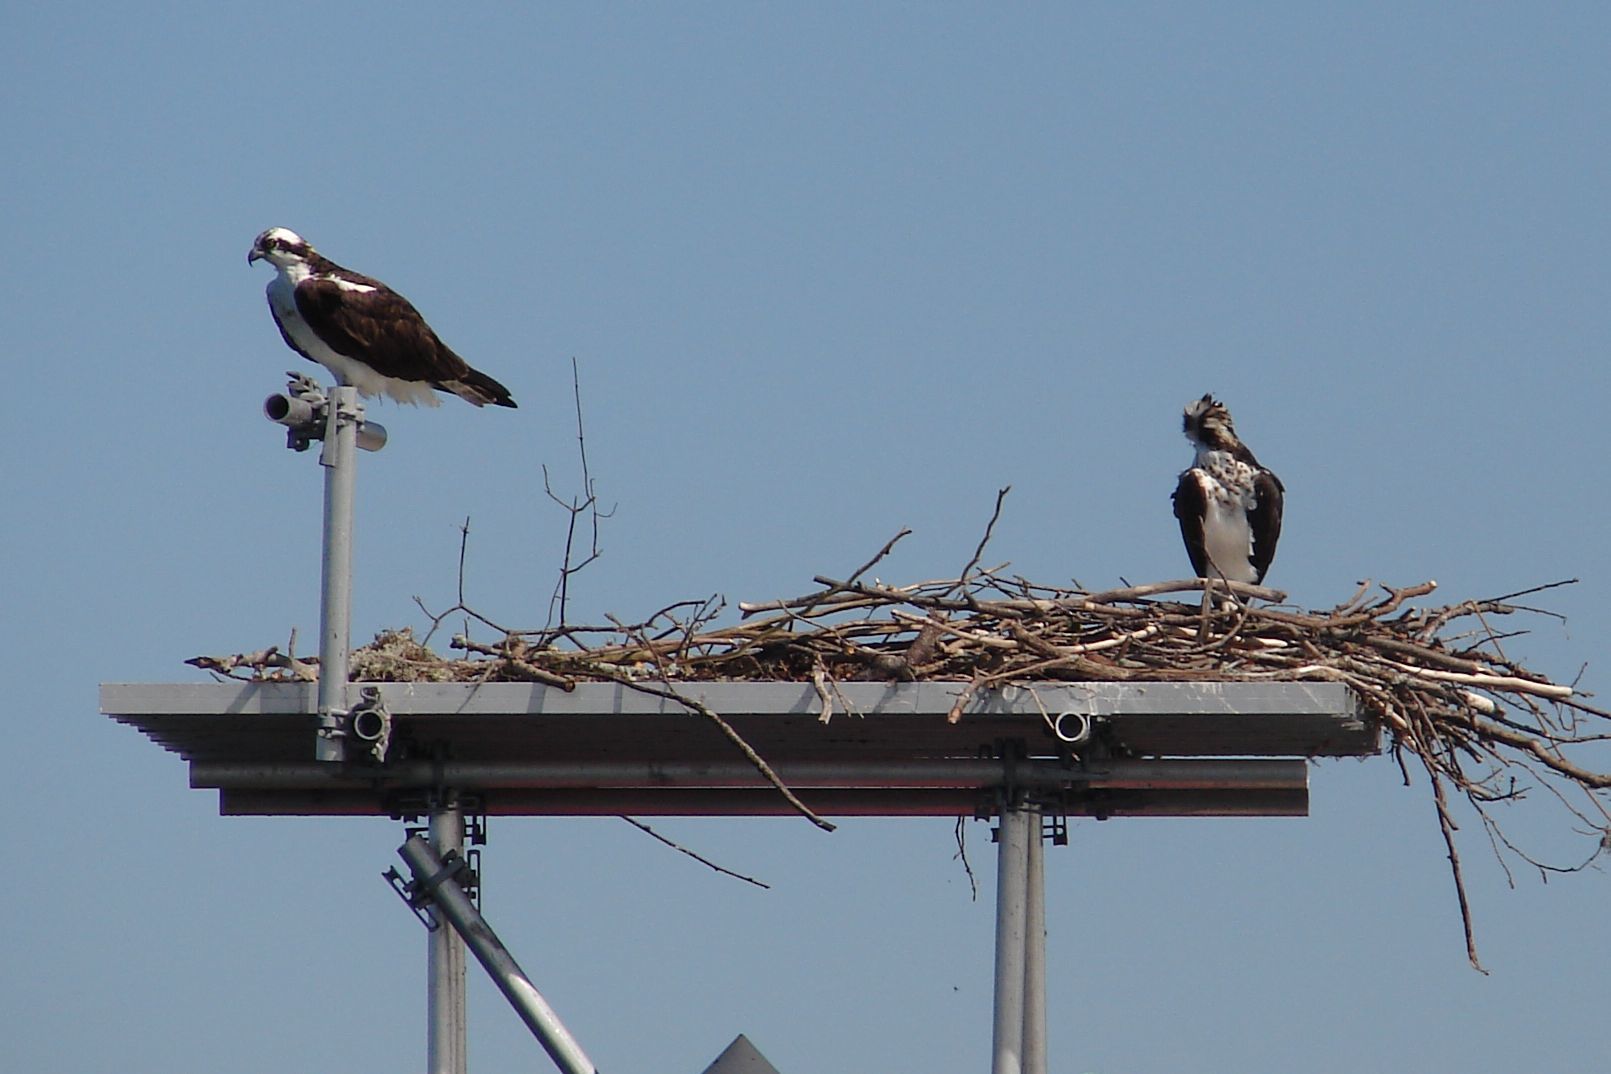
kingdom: Animalia
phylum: Chordata
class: Aves
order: Accipitriformes
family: Pandionidae
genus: Pandion
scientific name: Pandion haliaetus
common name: Osprey
